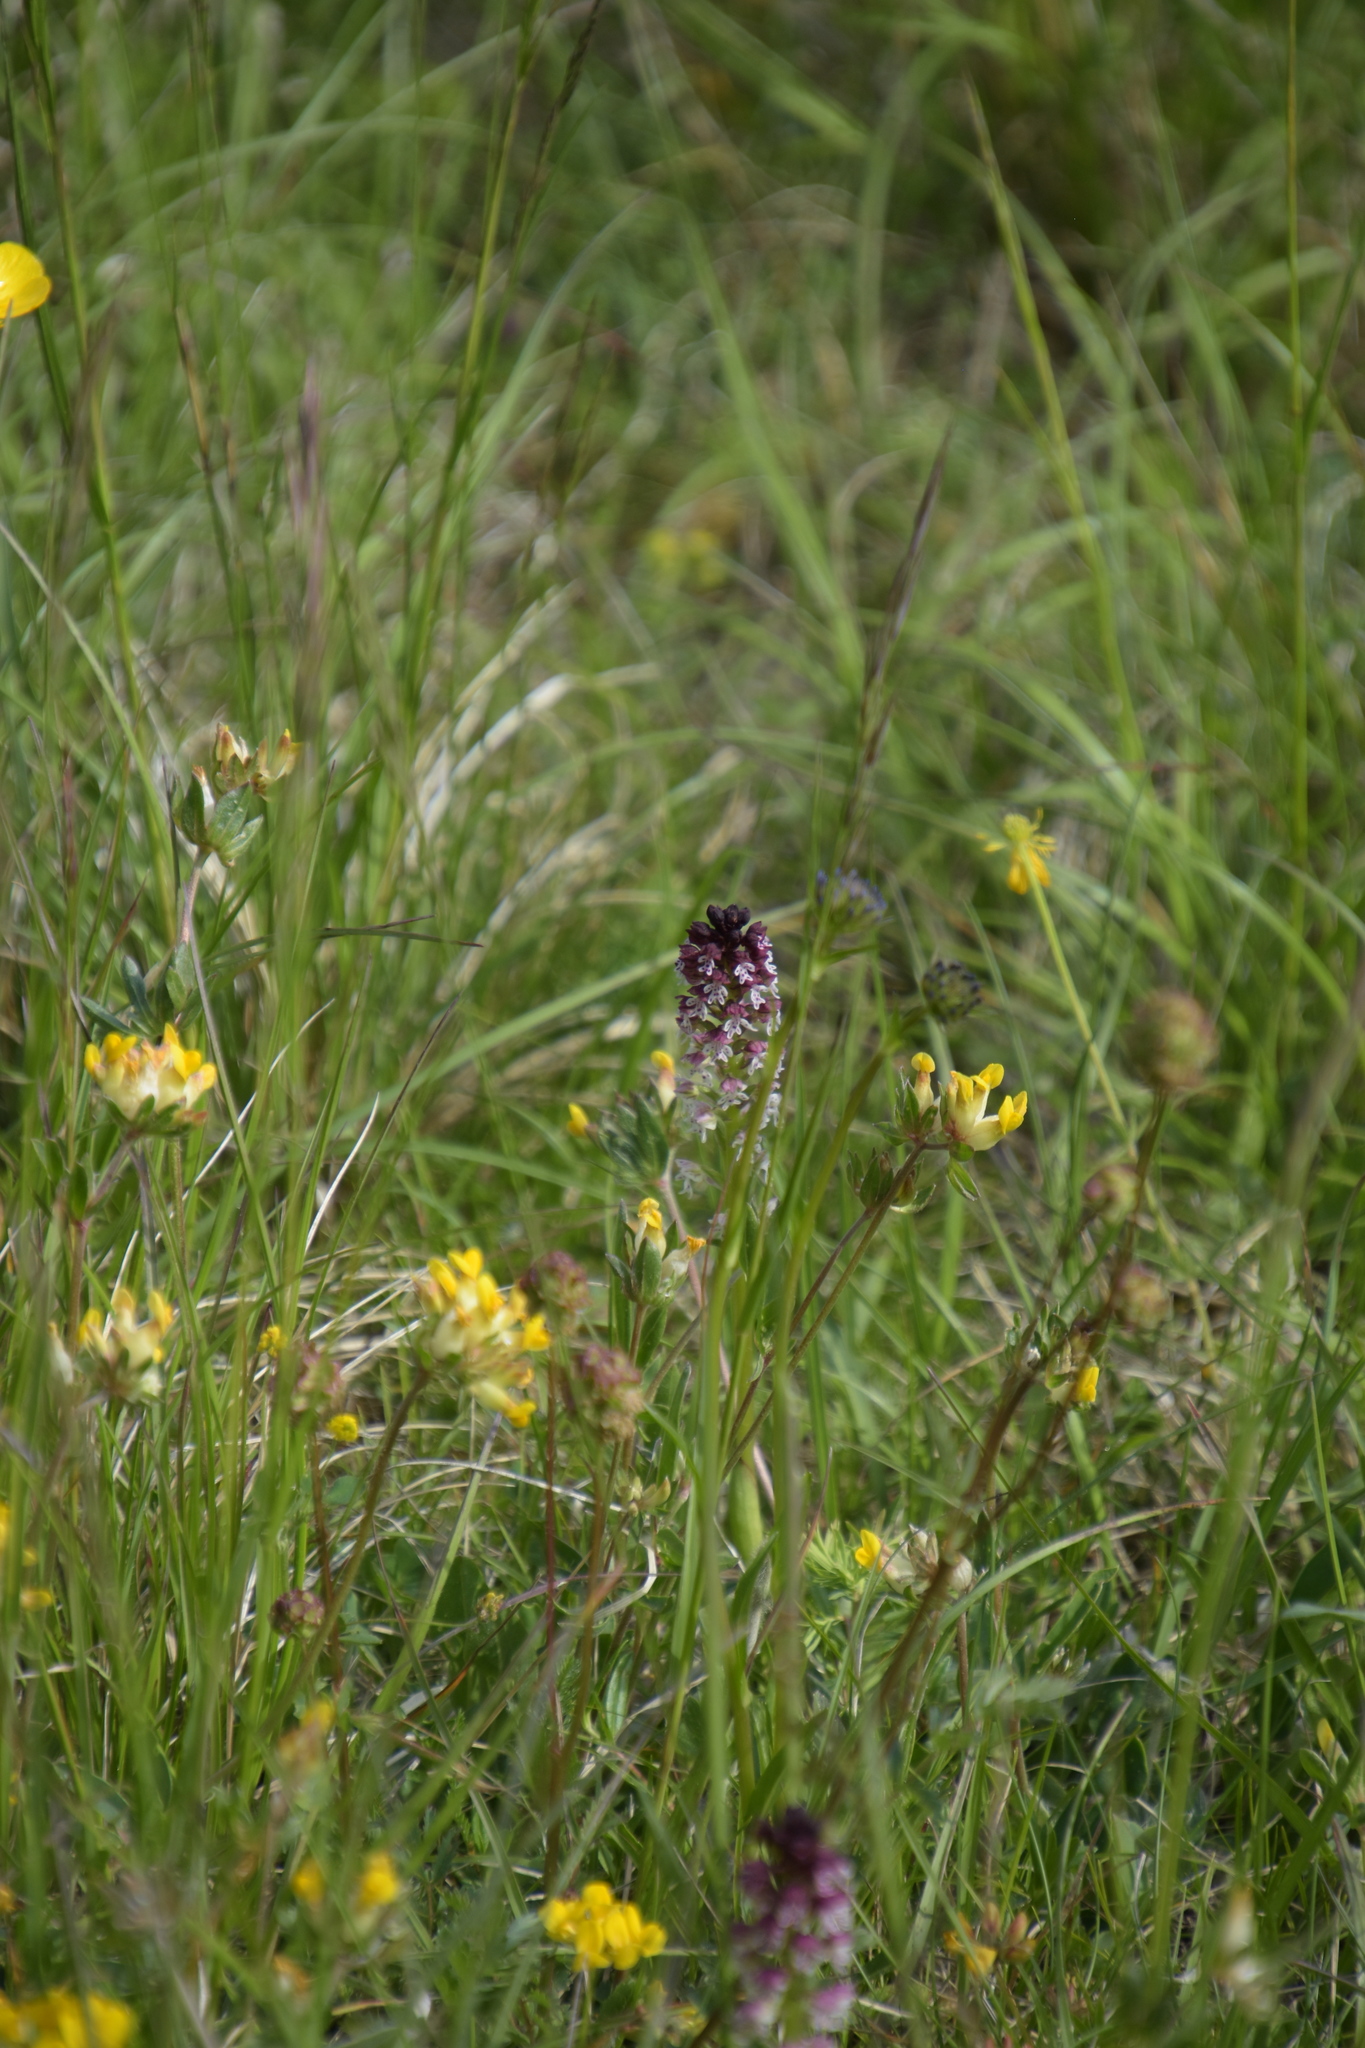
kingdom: Plantae
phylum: Tracheophyta
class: Liliopsida
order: Asparagales
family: Orchidaceae
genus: Neotinea
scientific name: Neotinea ustulata
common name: Burnt orchid
